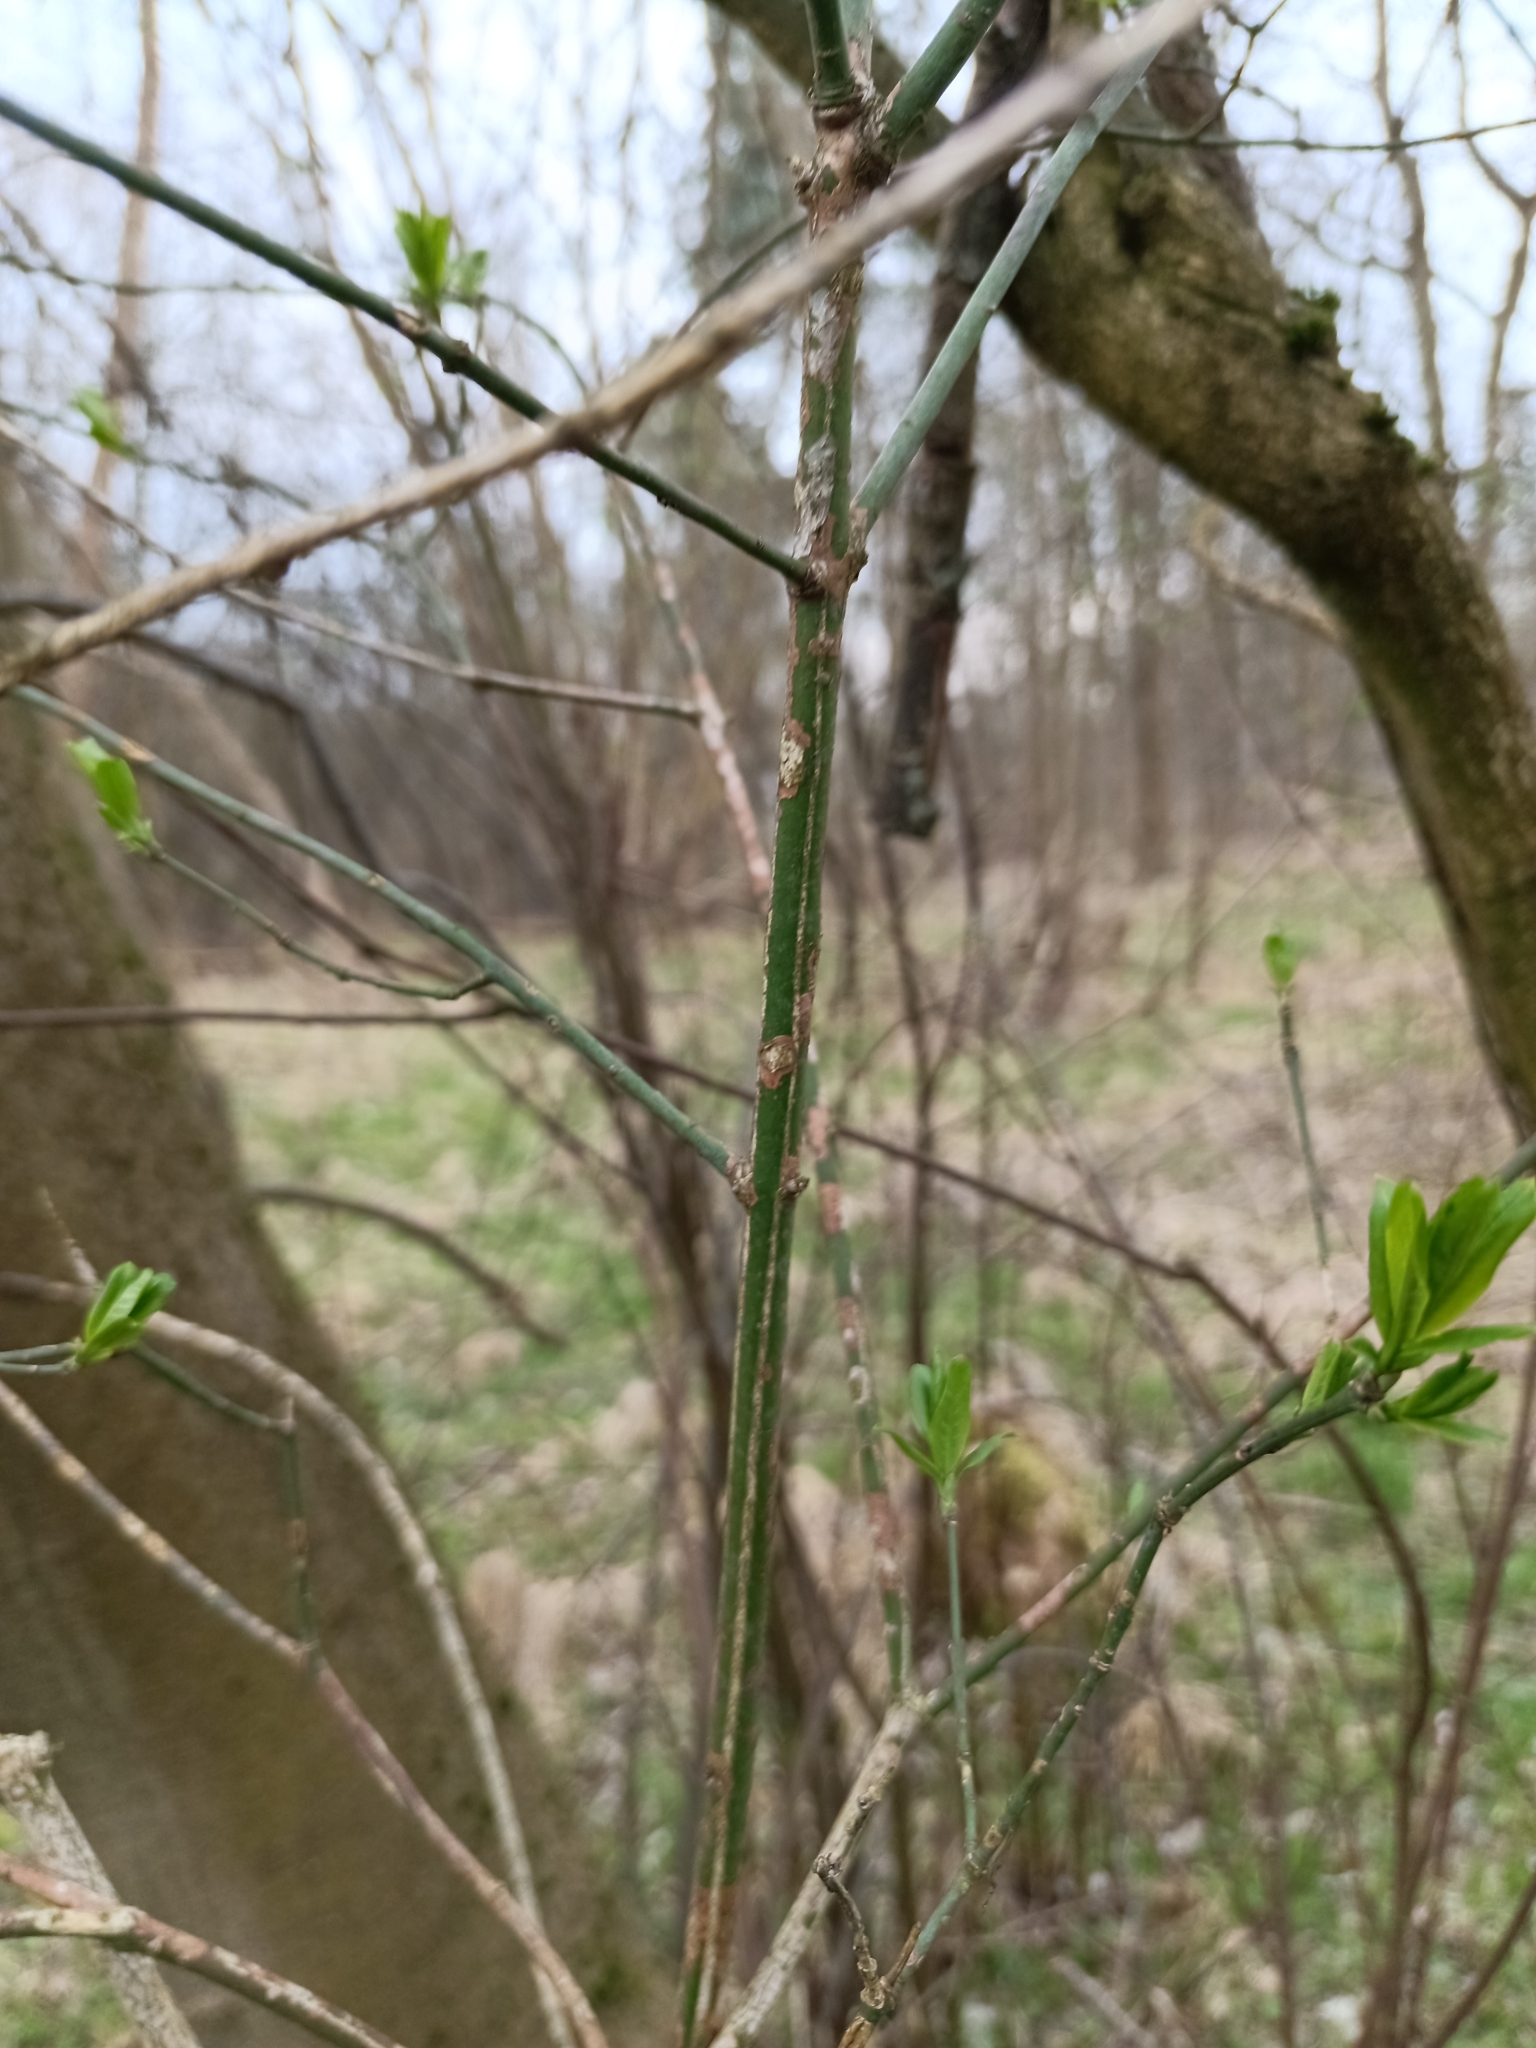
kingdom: Plantae
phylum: Tracheophyta
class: Magnoliopsida
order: Celastrales
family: Celastraceae
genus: Euonymus
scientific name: Euonymus europaeus
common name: Spindle
